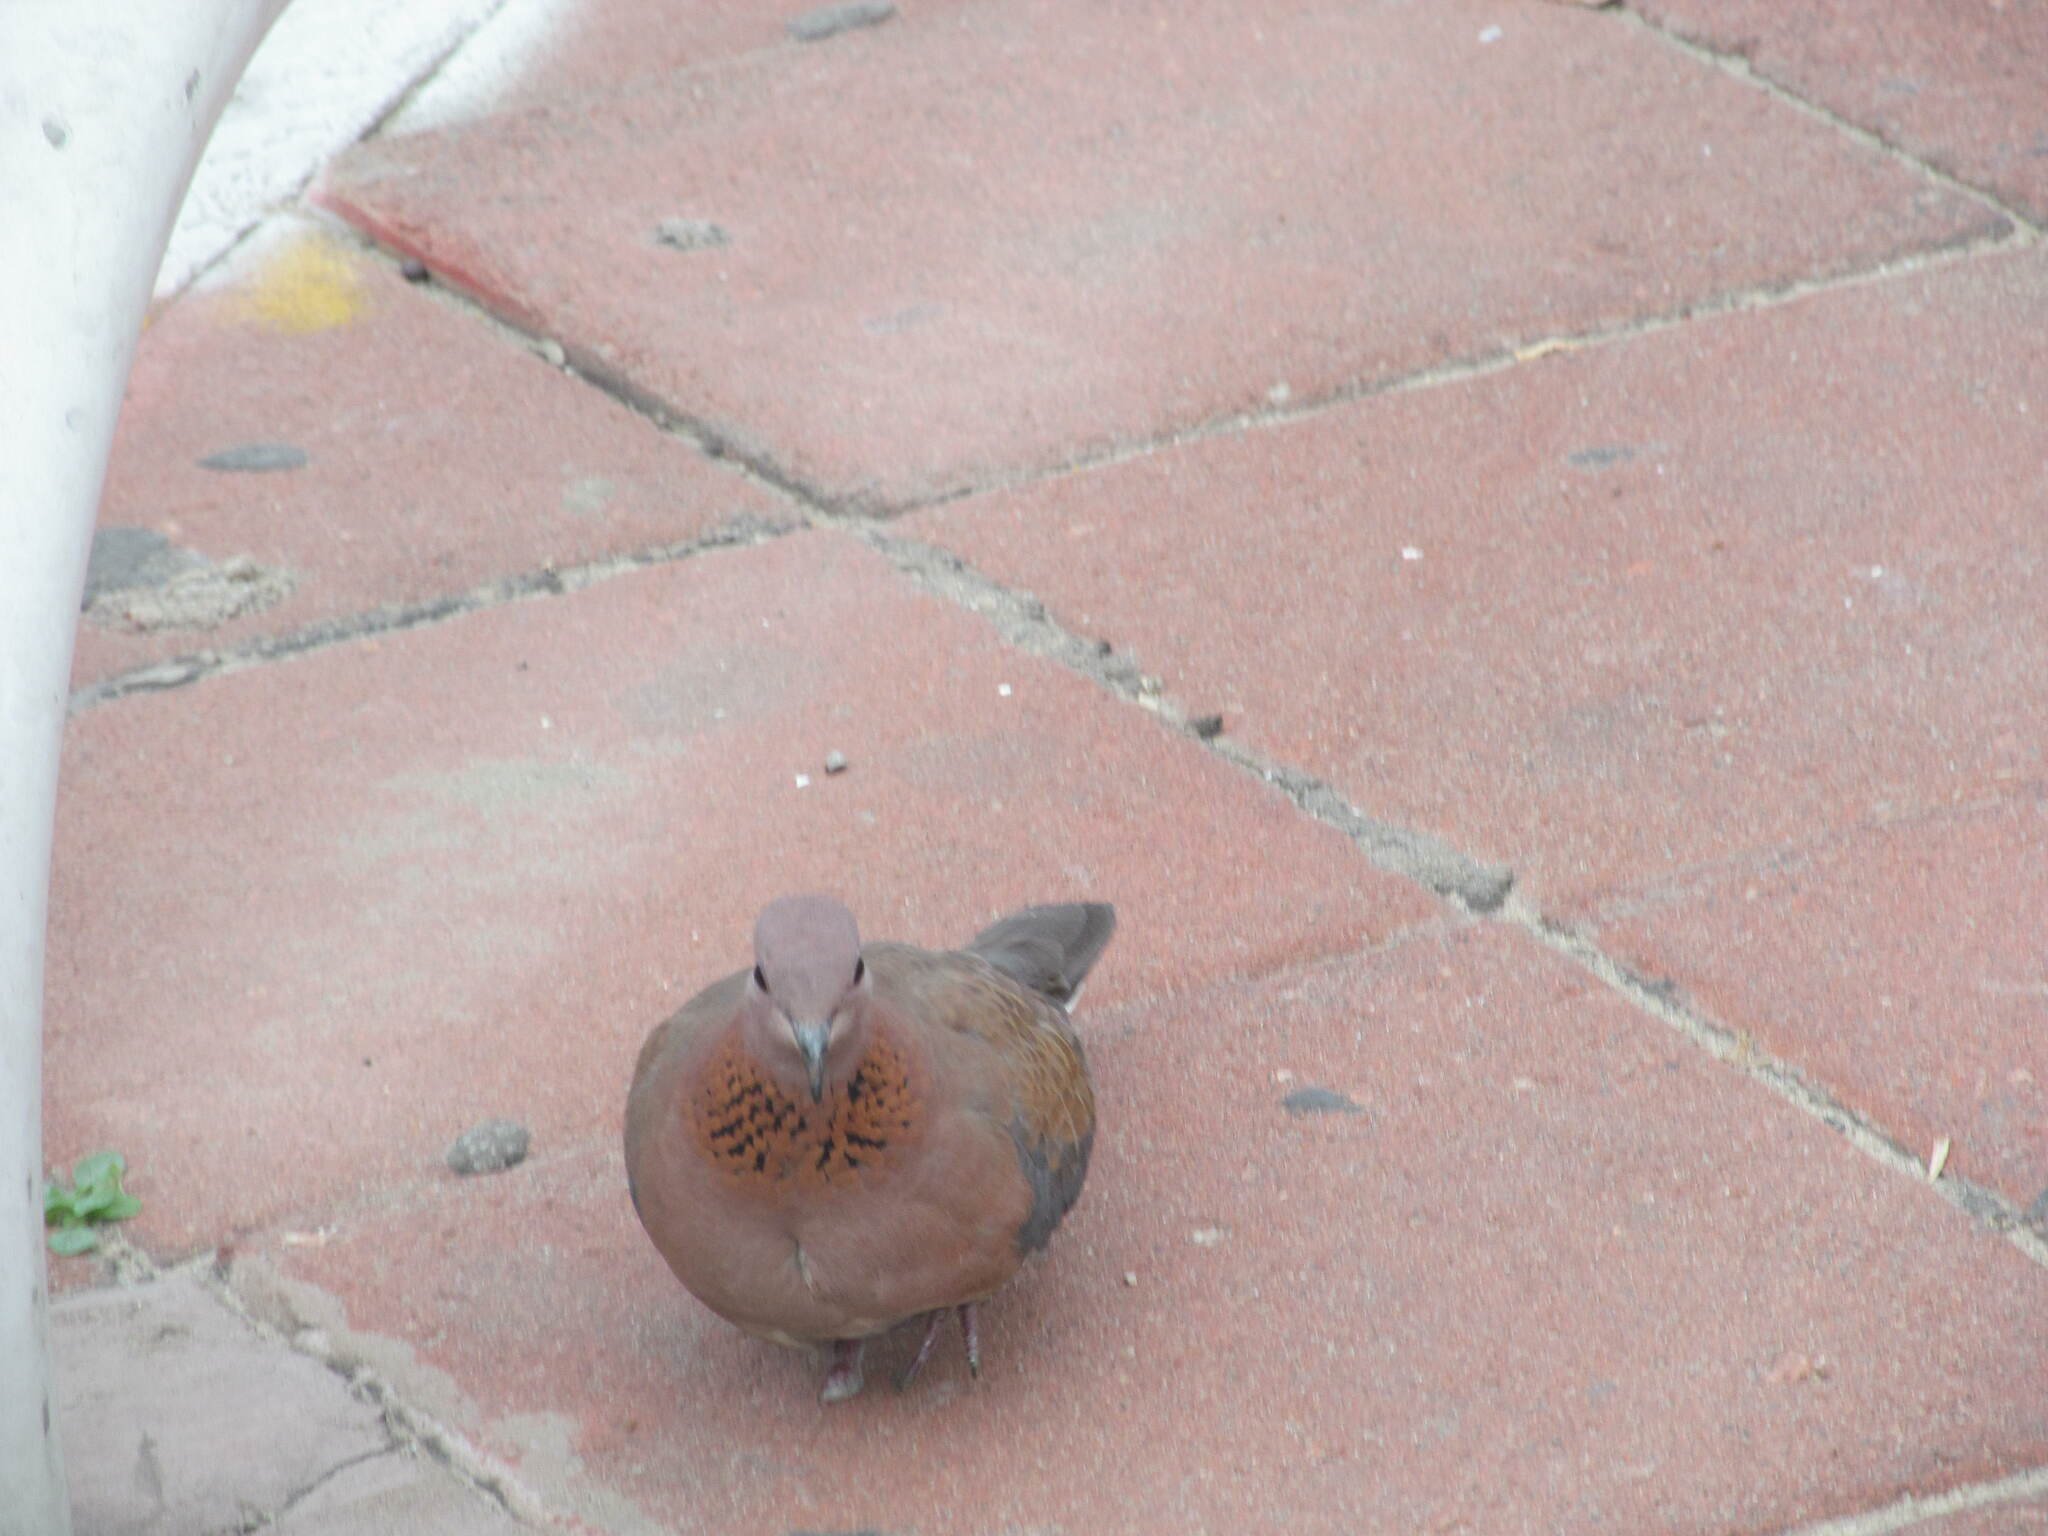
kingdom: Animalia
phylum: Chordata
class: Aves
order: Columbiformes
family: Columbidae
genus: Spilopelia
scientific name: Spilopelia senegalensis
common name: Laughing dove
